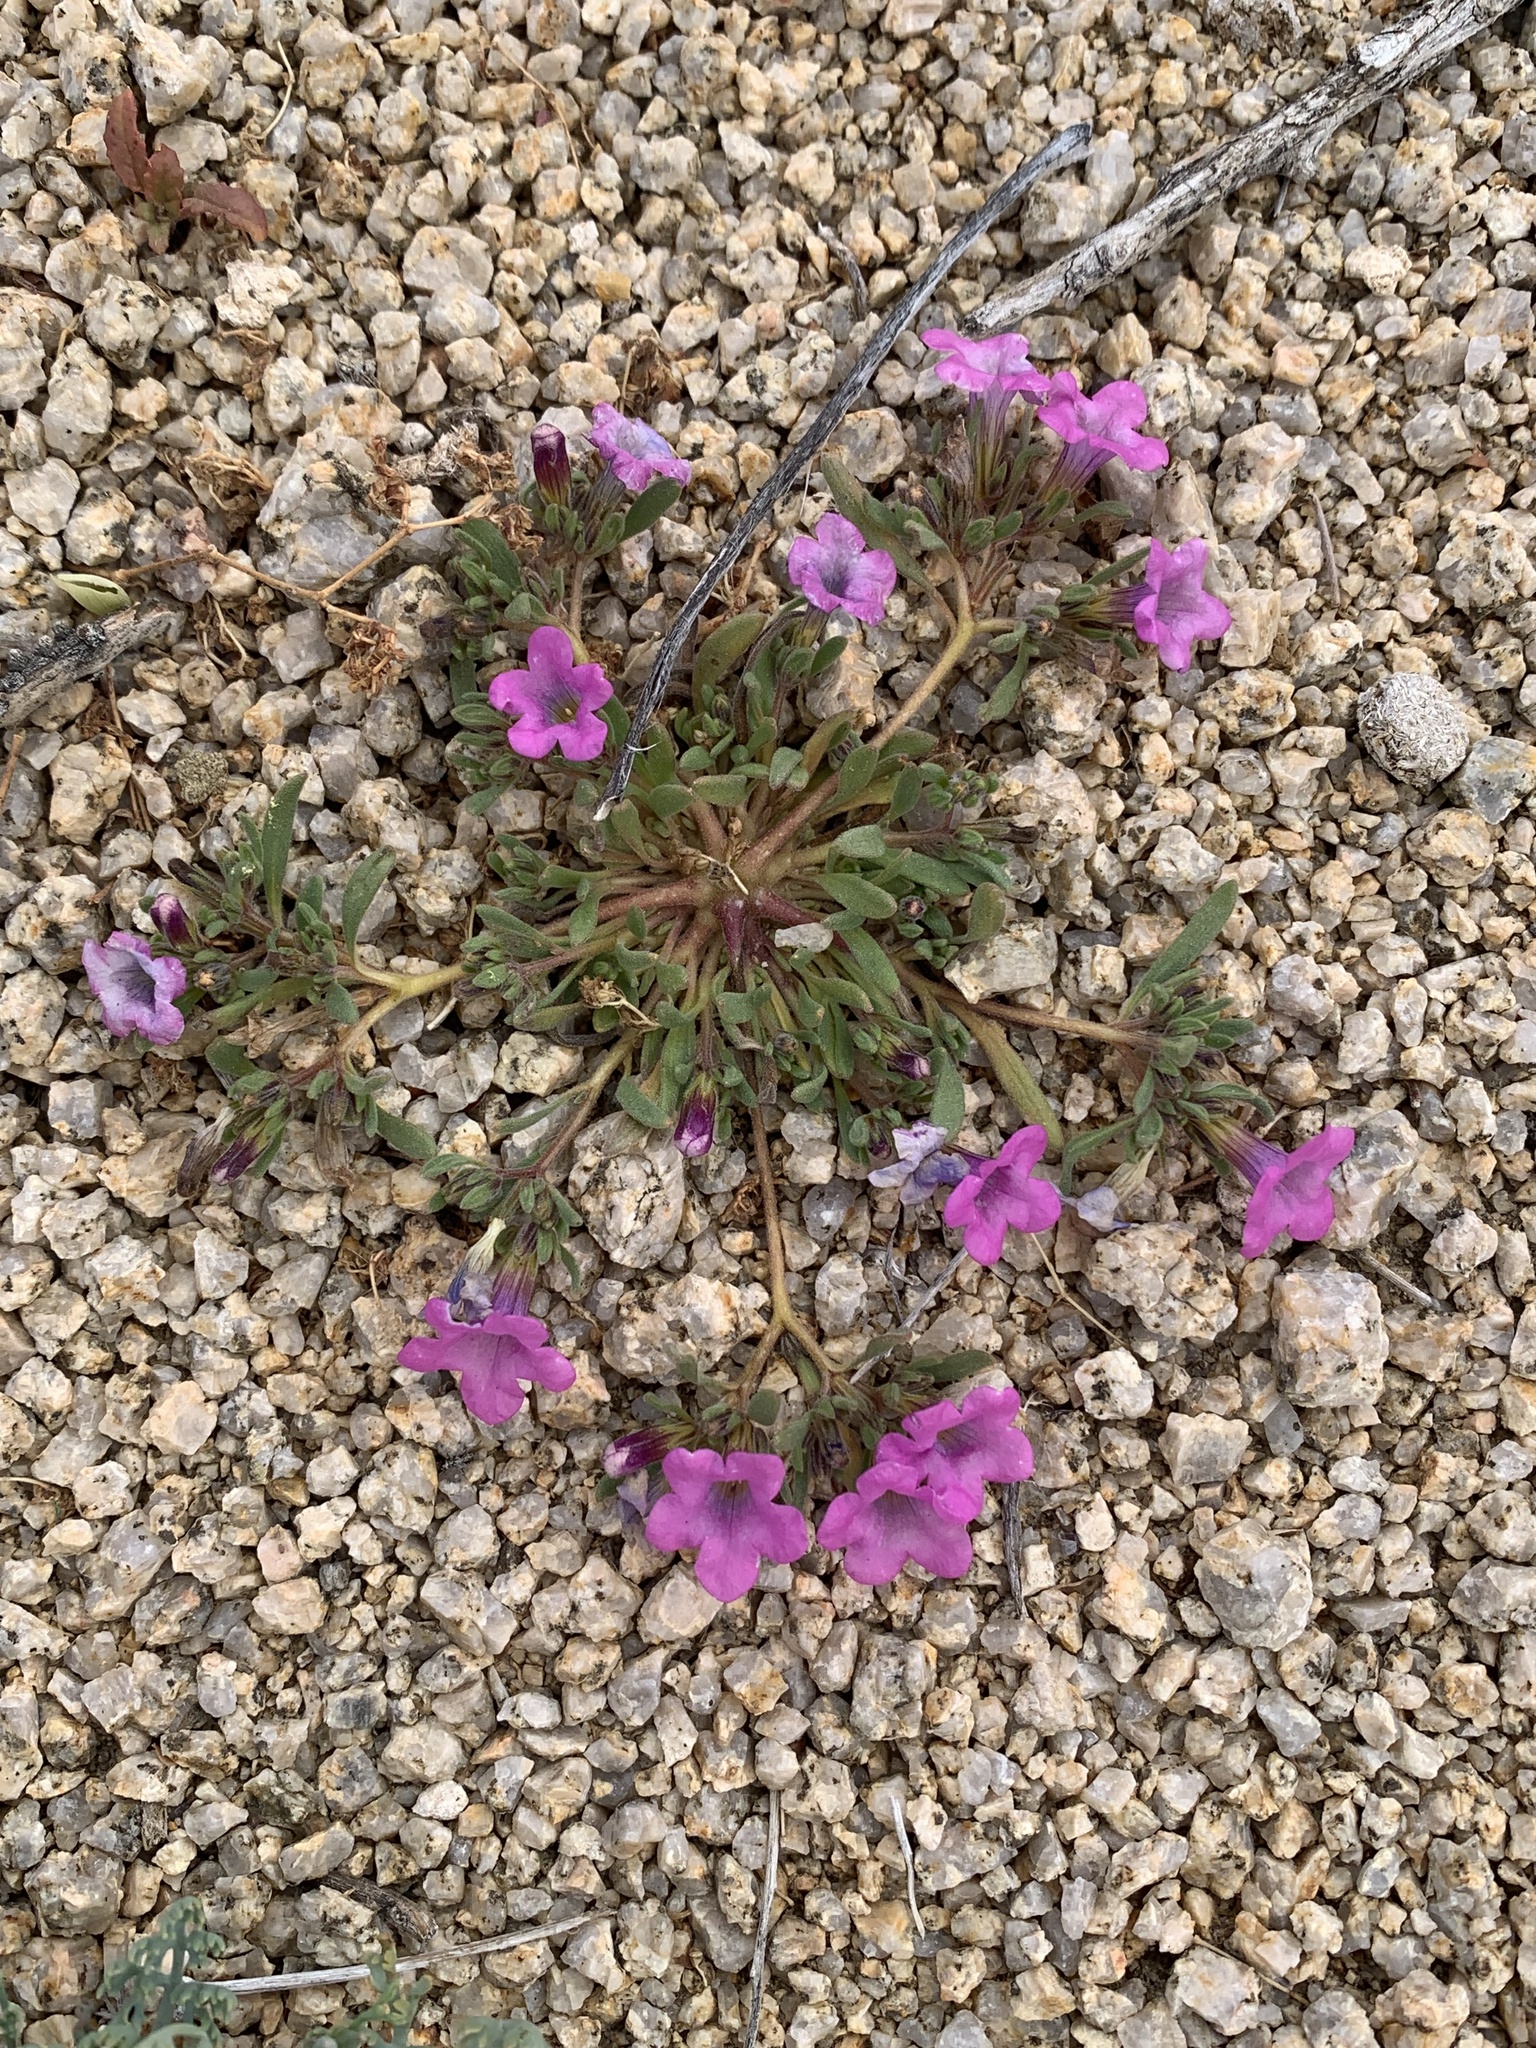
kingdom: Plantae
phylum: Tracheophyta
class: Magnoliopsida
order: Boraginales
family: Namaceae
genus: Nama
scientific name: Nama demissa
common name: Leafy nama
